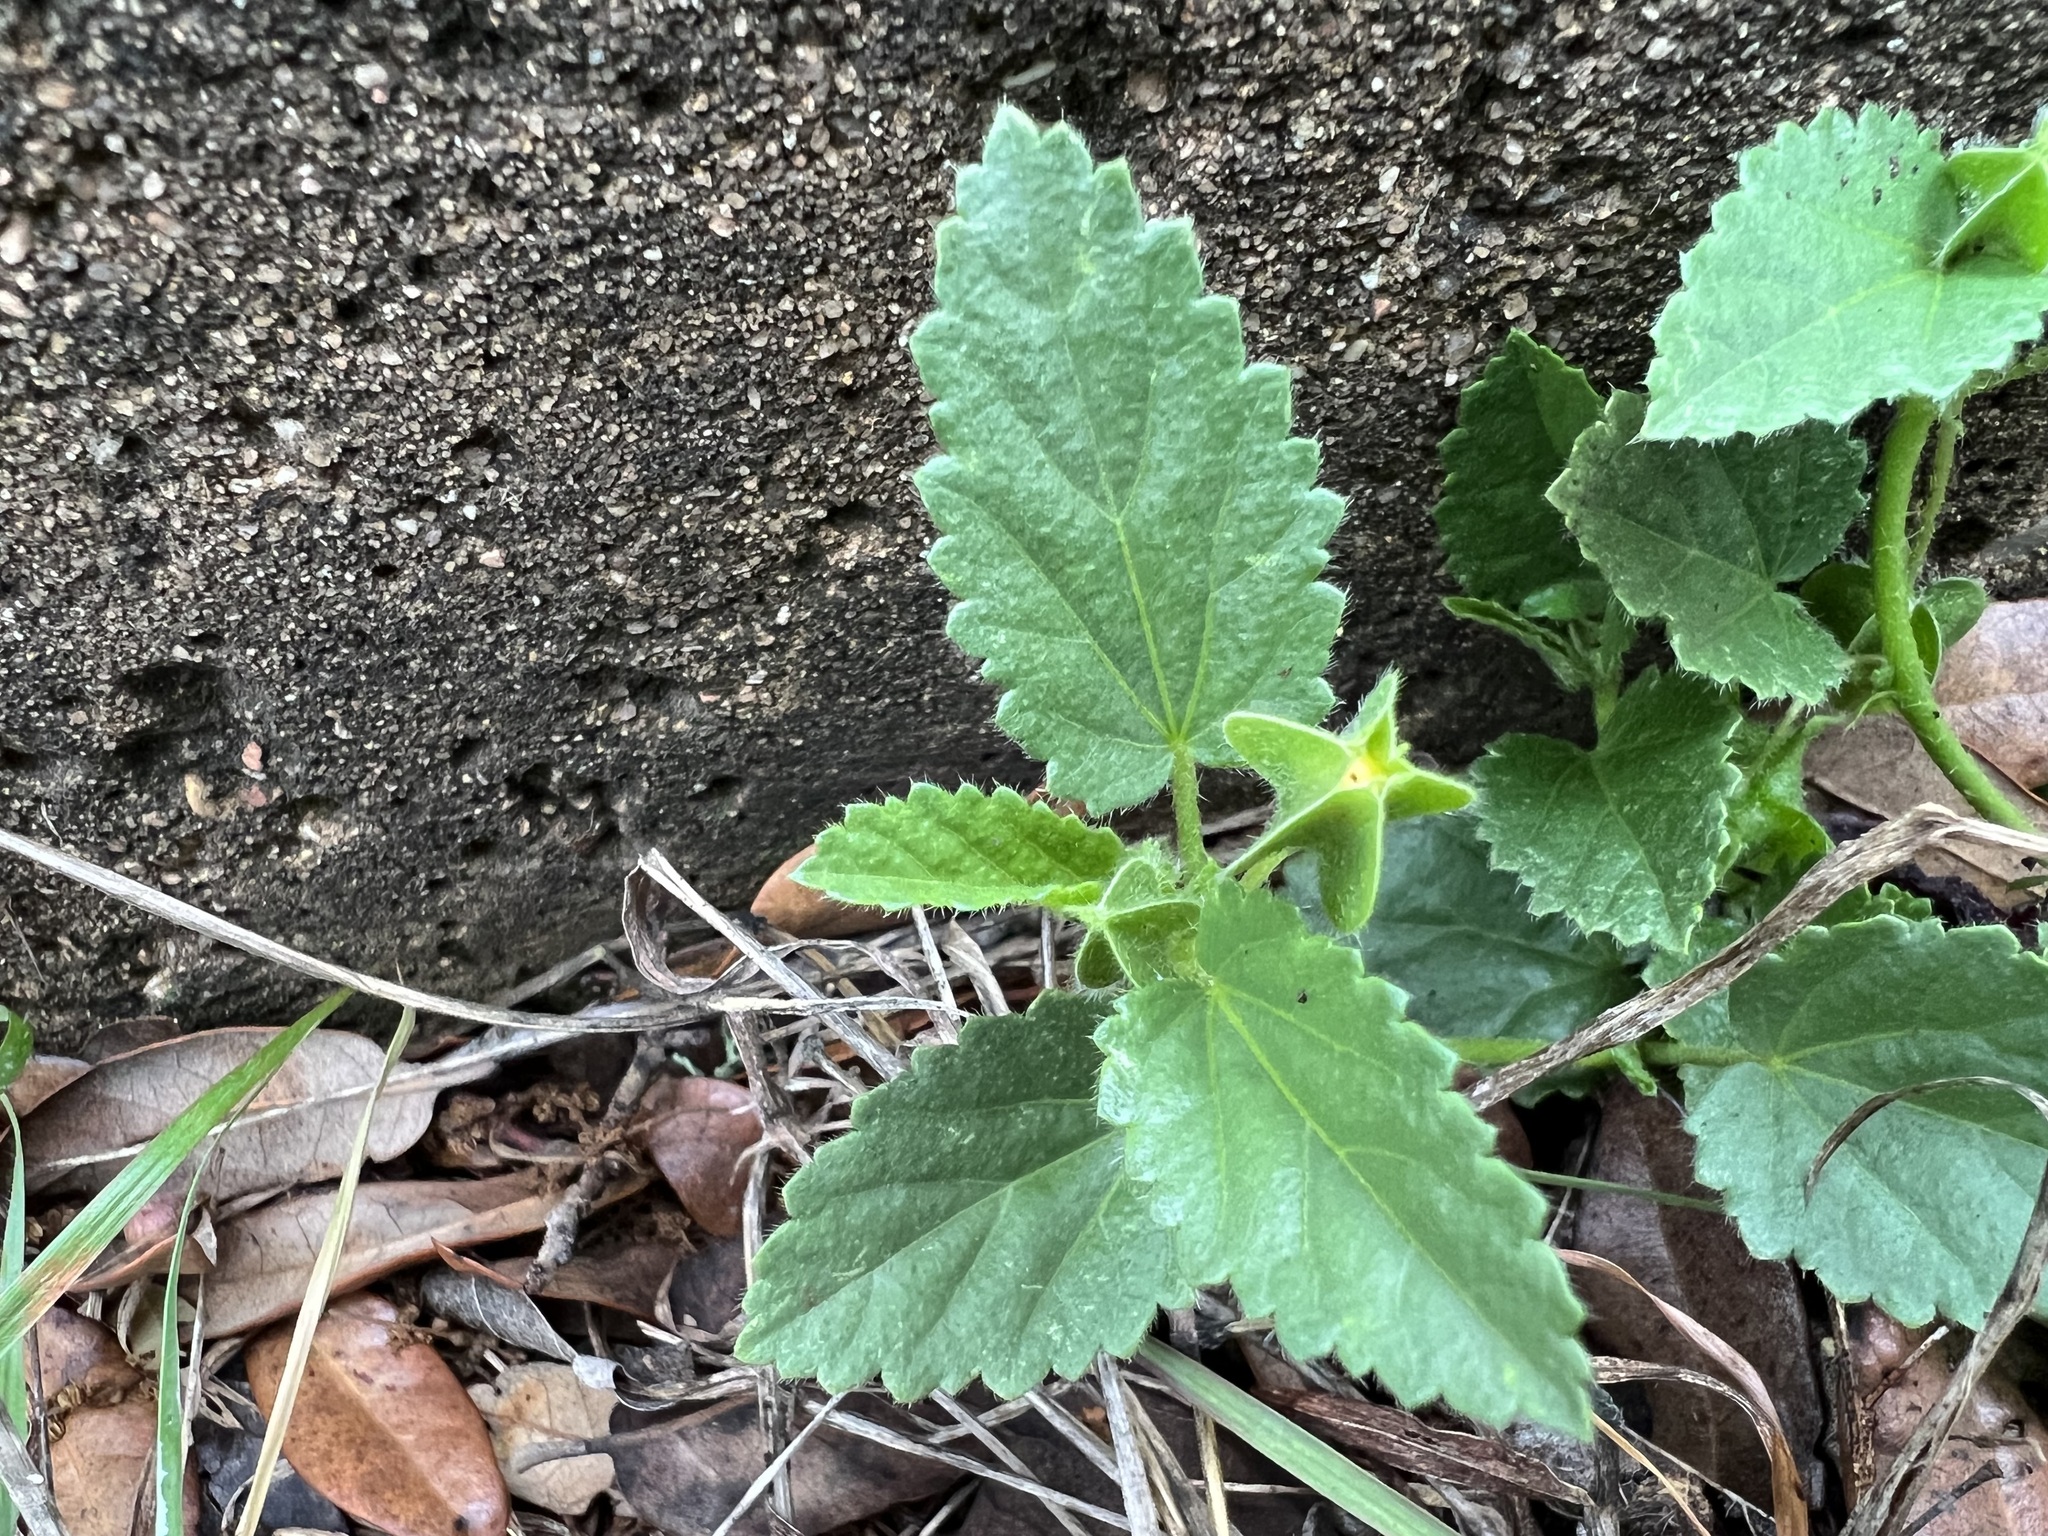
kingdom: Plantae
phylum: Tracheophyta
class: Magnoliopsida
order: Malvales
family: Malvaceae
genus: Rhynchosida
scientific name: Rhynchosida physocalyx
